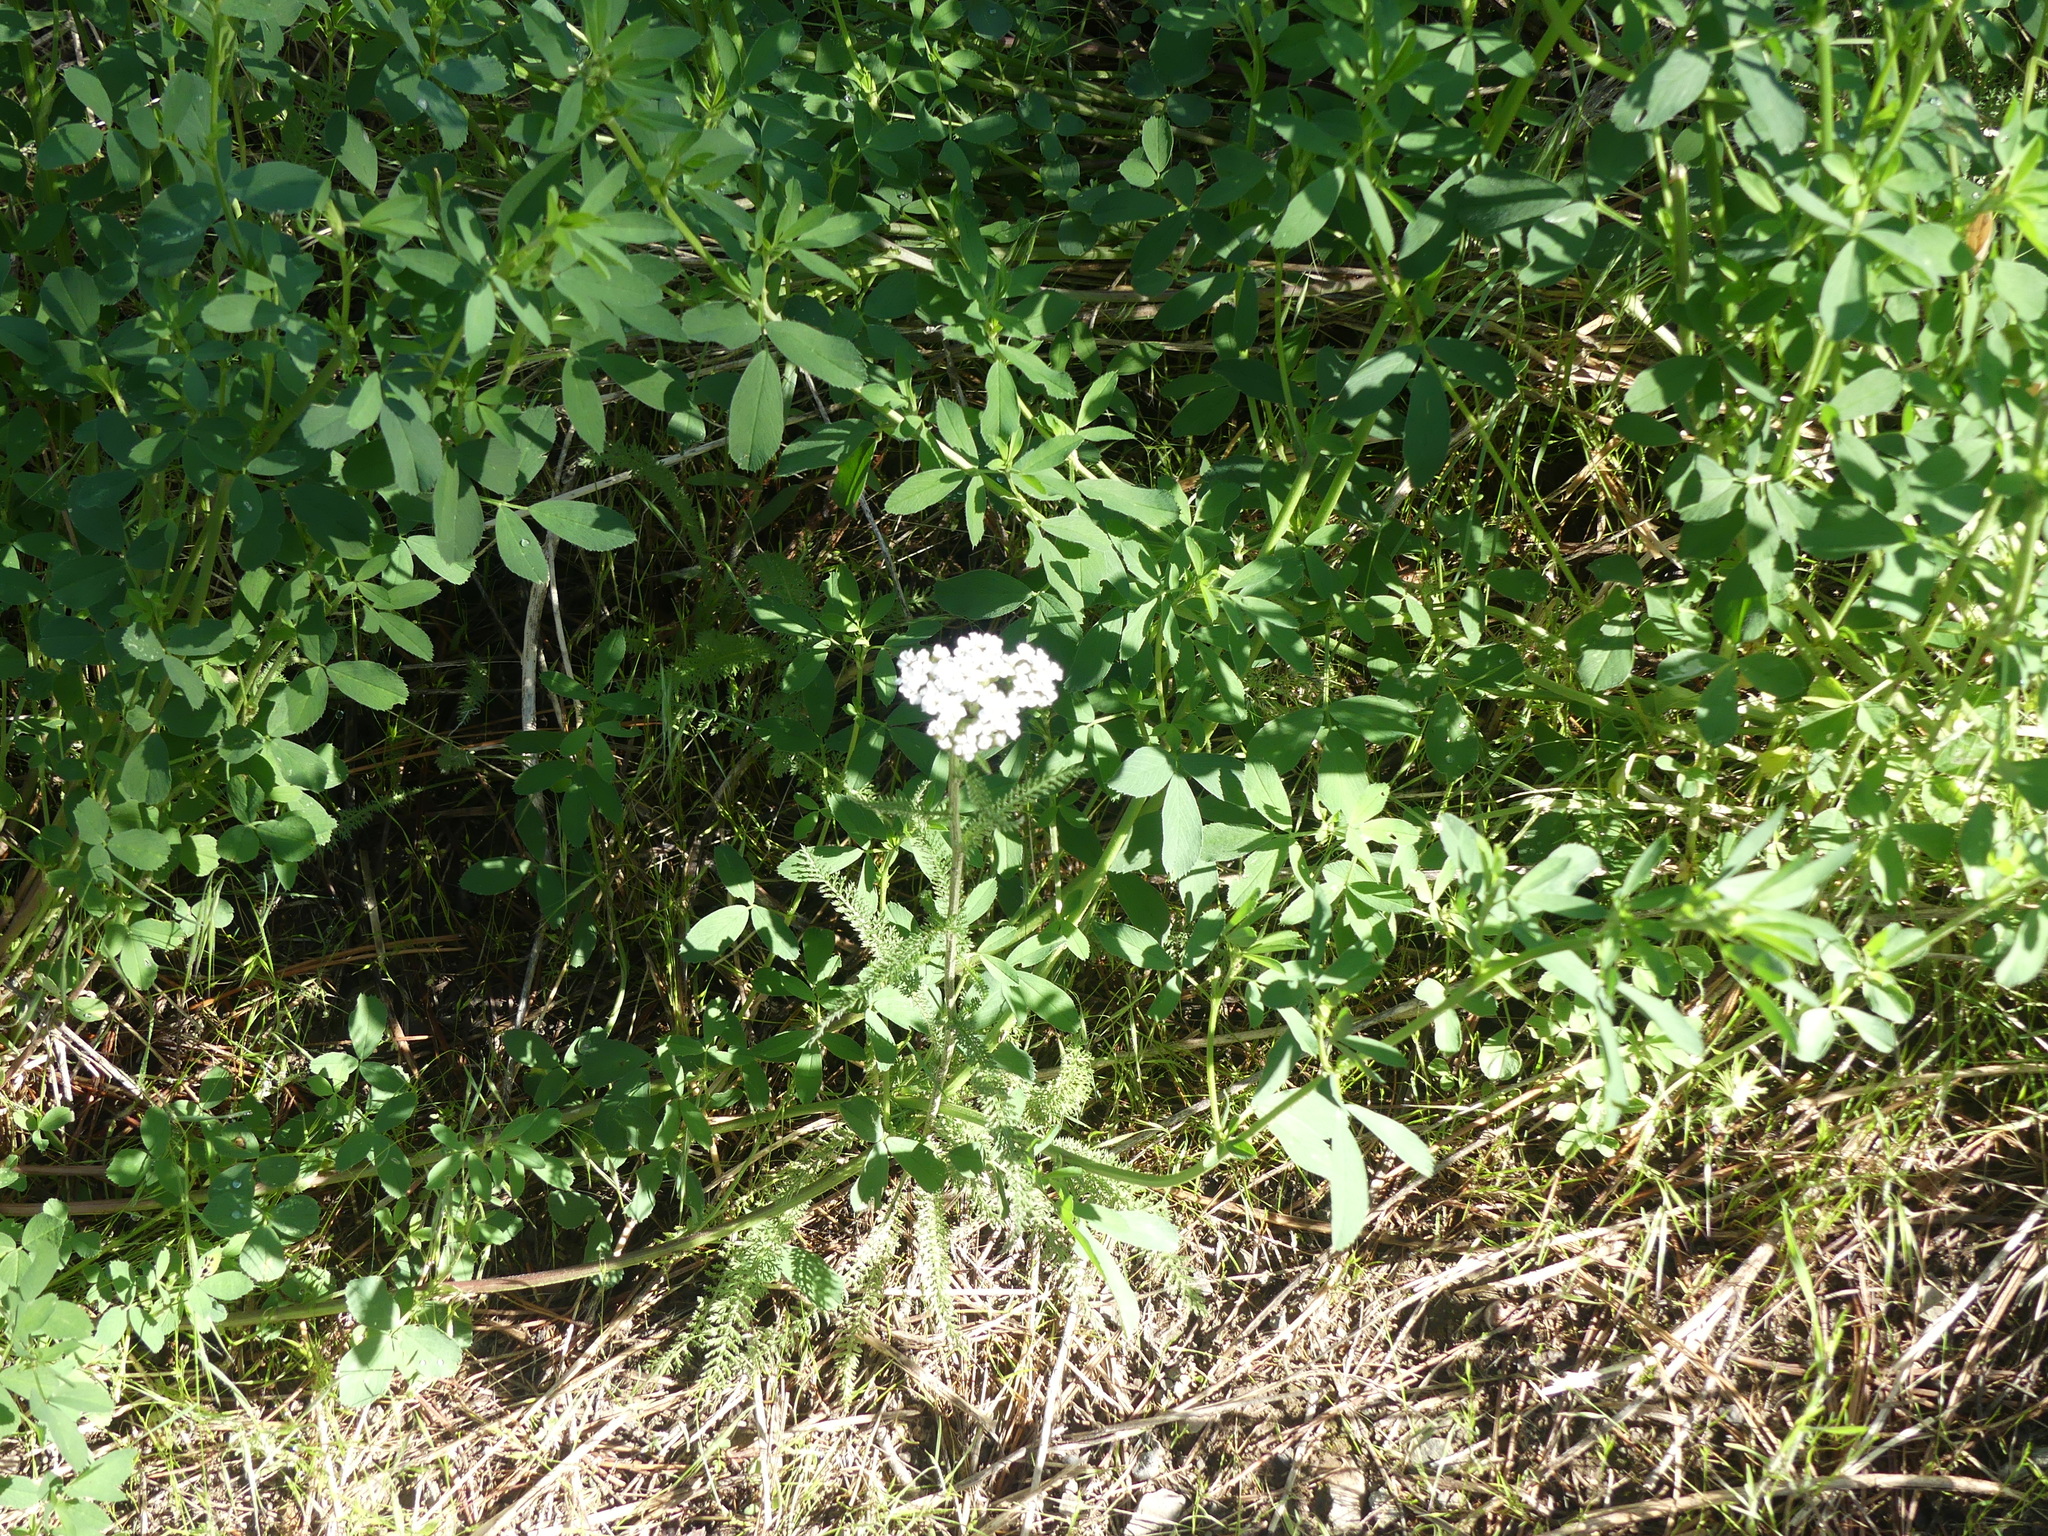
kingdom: Plantae
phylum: Tracheophyta
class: Magnoliopsida
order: Asterales
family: Asteraceae
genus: Achillea
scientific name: Achillea millefolium
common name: Yarrow
